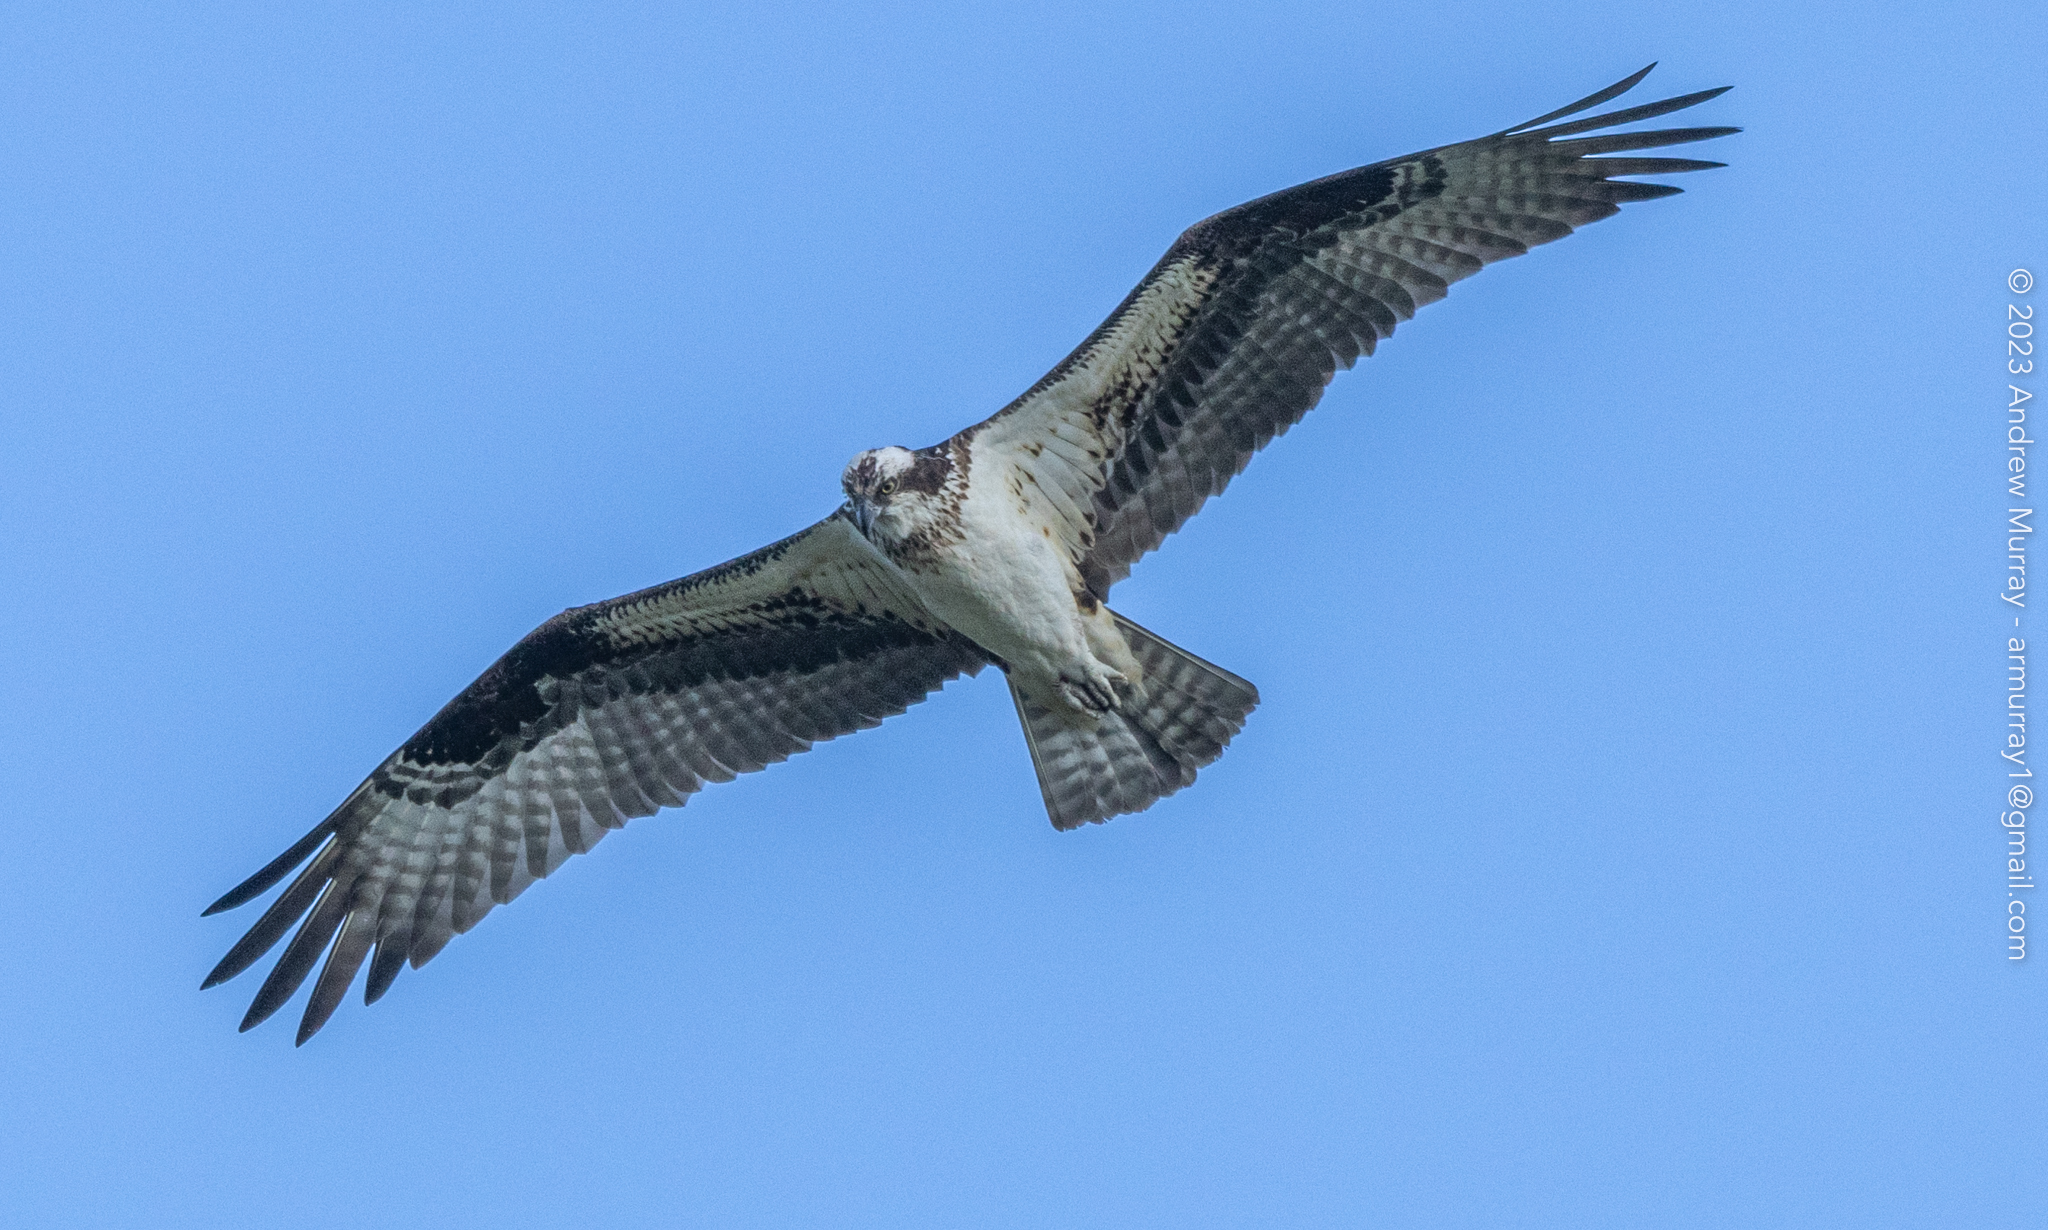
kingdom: Animalia
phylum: Chordata
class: Aves
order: Accipitriformes
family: Pandionidae
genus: Pandion
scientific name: Pandion haliaetus
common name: Osprey
